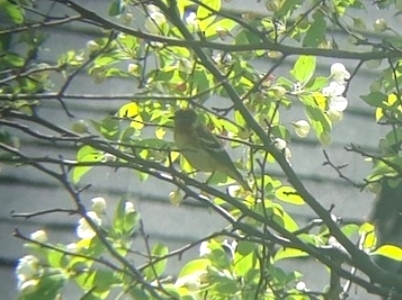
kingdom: Animalia
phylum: Chordata
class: Aves
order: Passeriformes
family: Parulidae
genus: Setophaga
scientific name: Setophaga castanea
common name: Bay-breasted warbler
